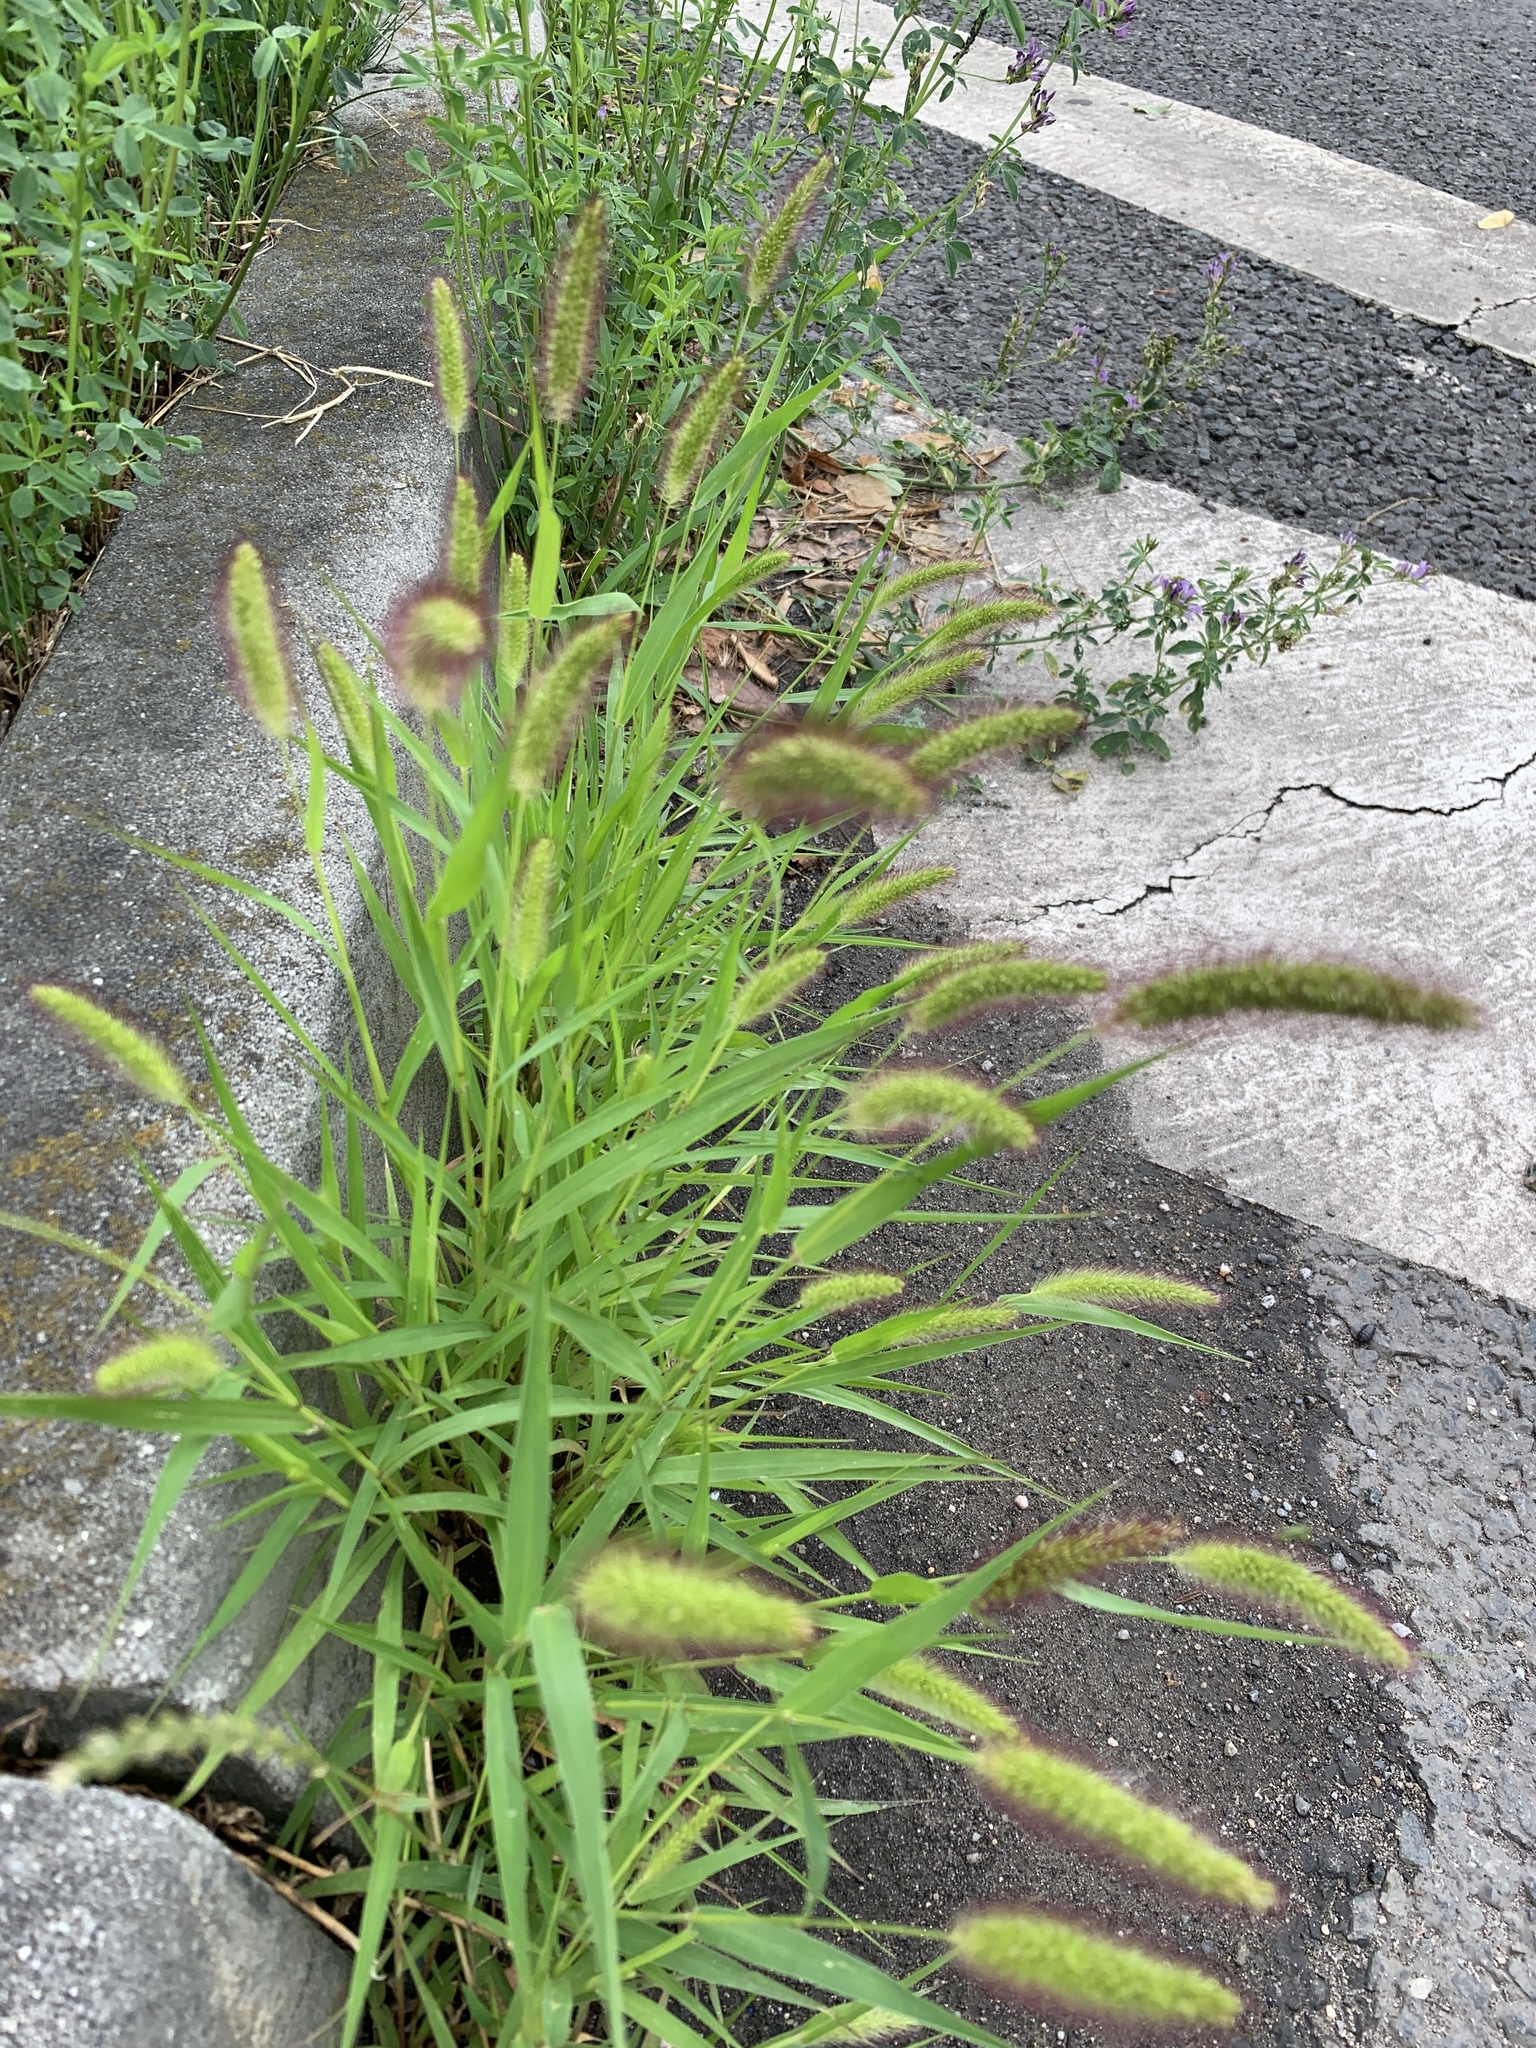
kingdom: Plantae
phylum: Tracheophyta
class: Liliopsida
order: Poales
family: Poaceae
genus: Setaria
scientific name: Setaria viridis
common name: Green bristlegrass
